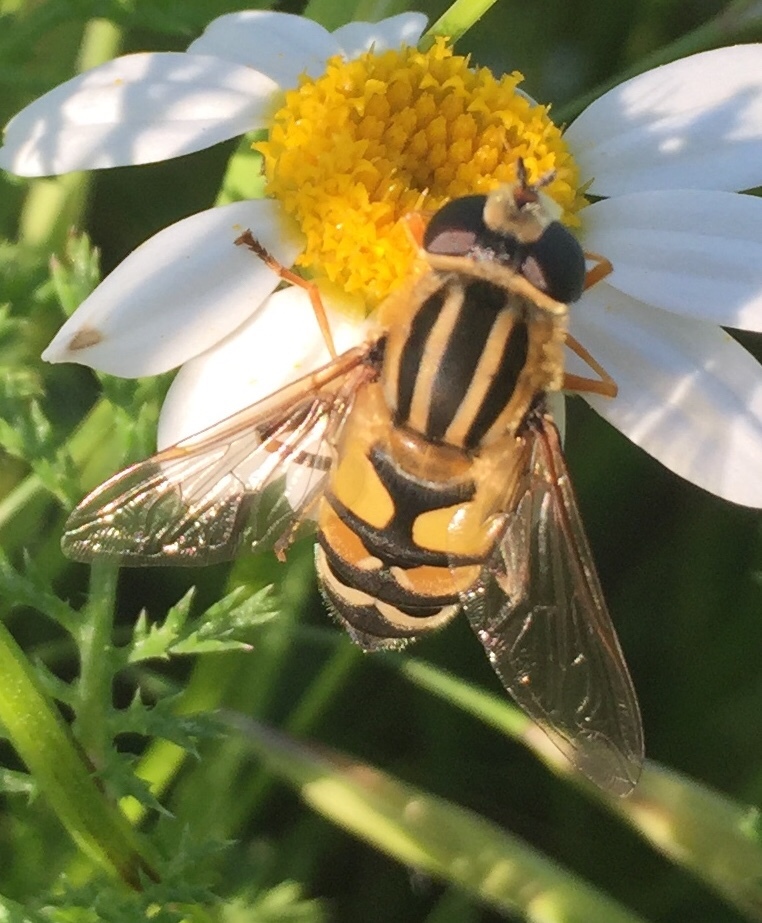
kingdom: Animalia
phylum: Arthropoda
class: Insecta
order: Diptera
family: Syrphidae
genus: Helophilus
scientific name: Helophilus trivittatus
